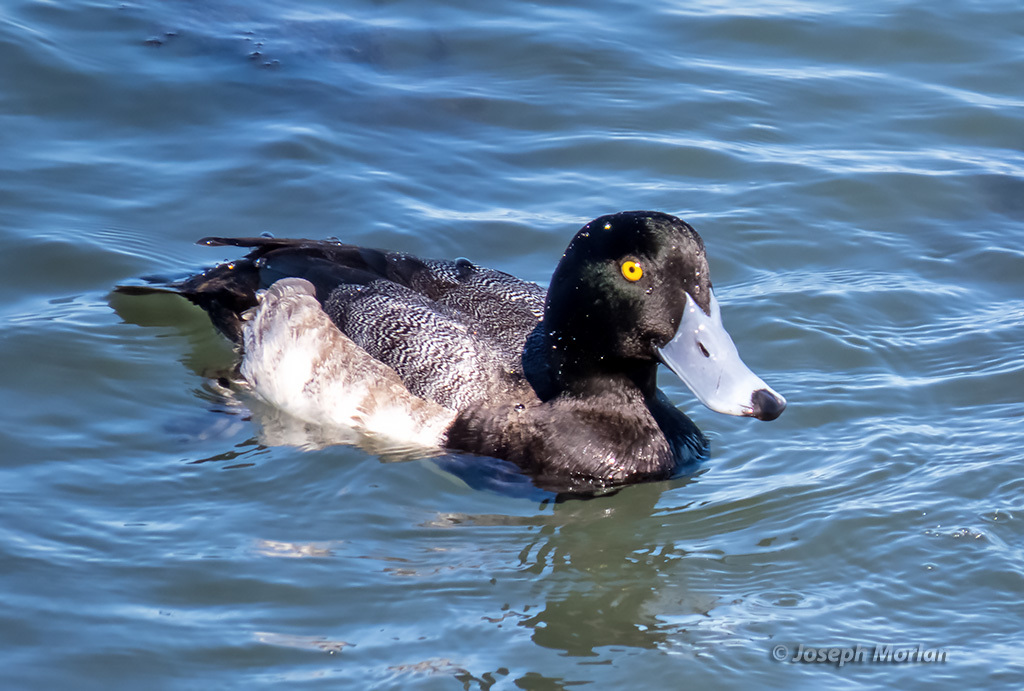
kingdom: Animalia
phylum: Chordata
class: Aves
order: Anseriformes
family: Anatidae
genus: Aythya
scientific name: Aythya marila
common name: Greater scaup
